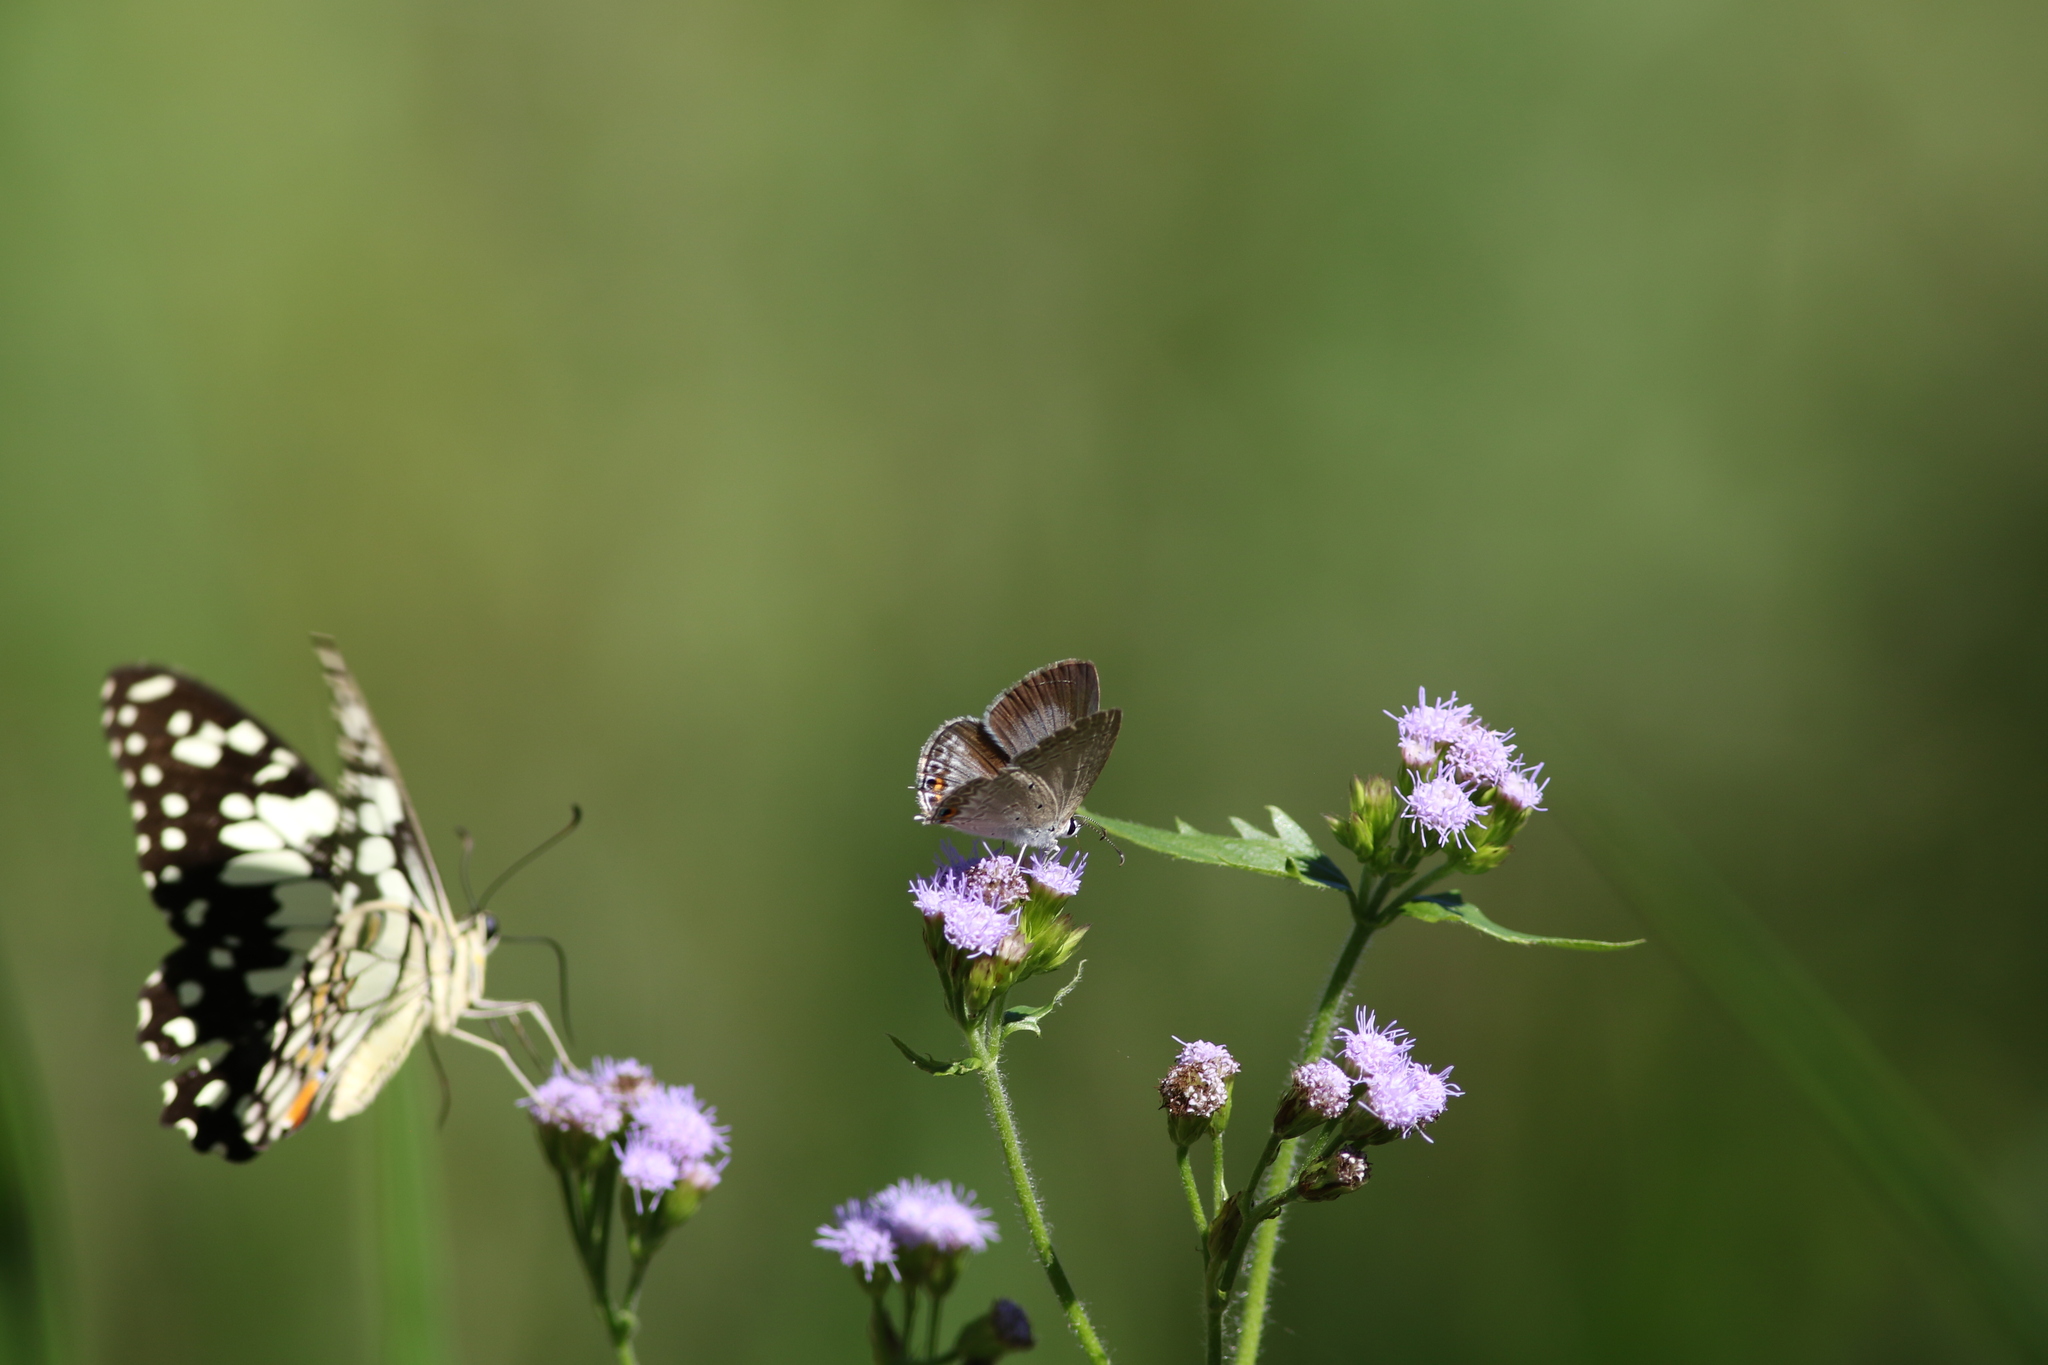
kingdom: Animalia
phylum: Arthropoda
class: Insecta
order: Lepidoptera
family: Lycaenidae
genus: Euchrysops
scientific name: Euchrysops cnejus
